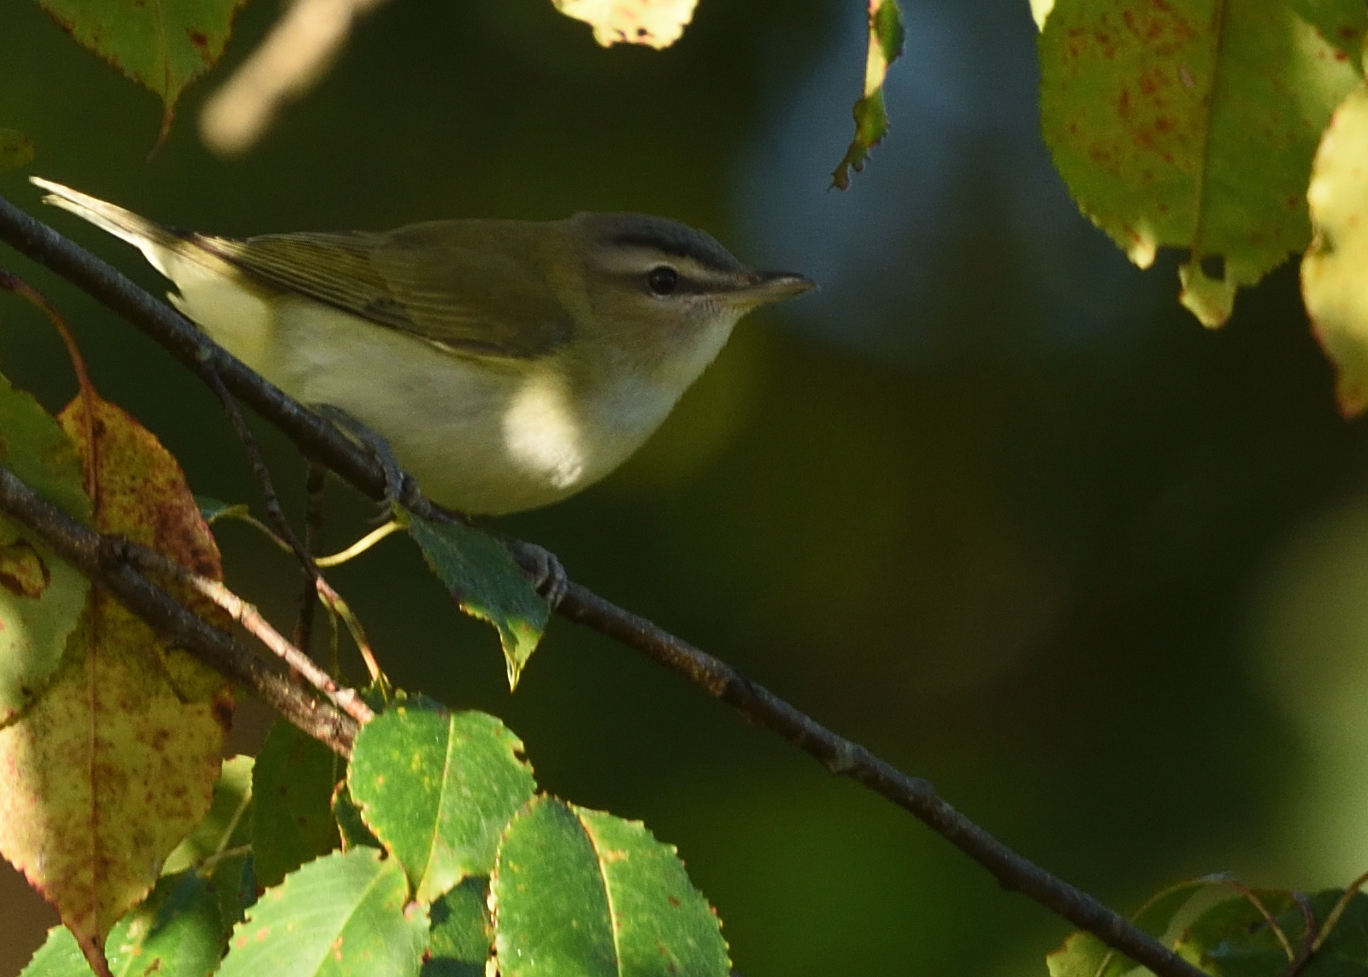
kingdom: Animalia
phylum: Chordata
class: Aves
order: Passeriformes
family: Vireonidae
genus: Vireo
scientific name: Vireo olivaceus
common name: Red-eyed vireo
